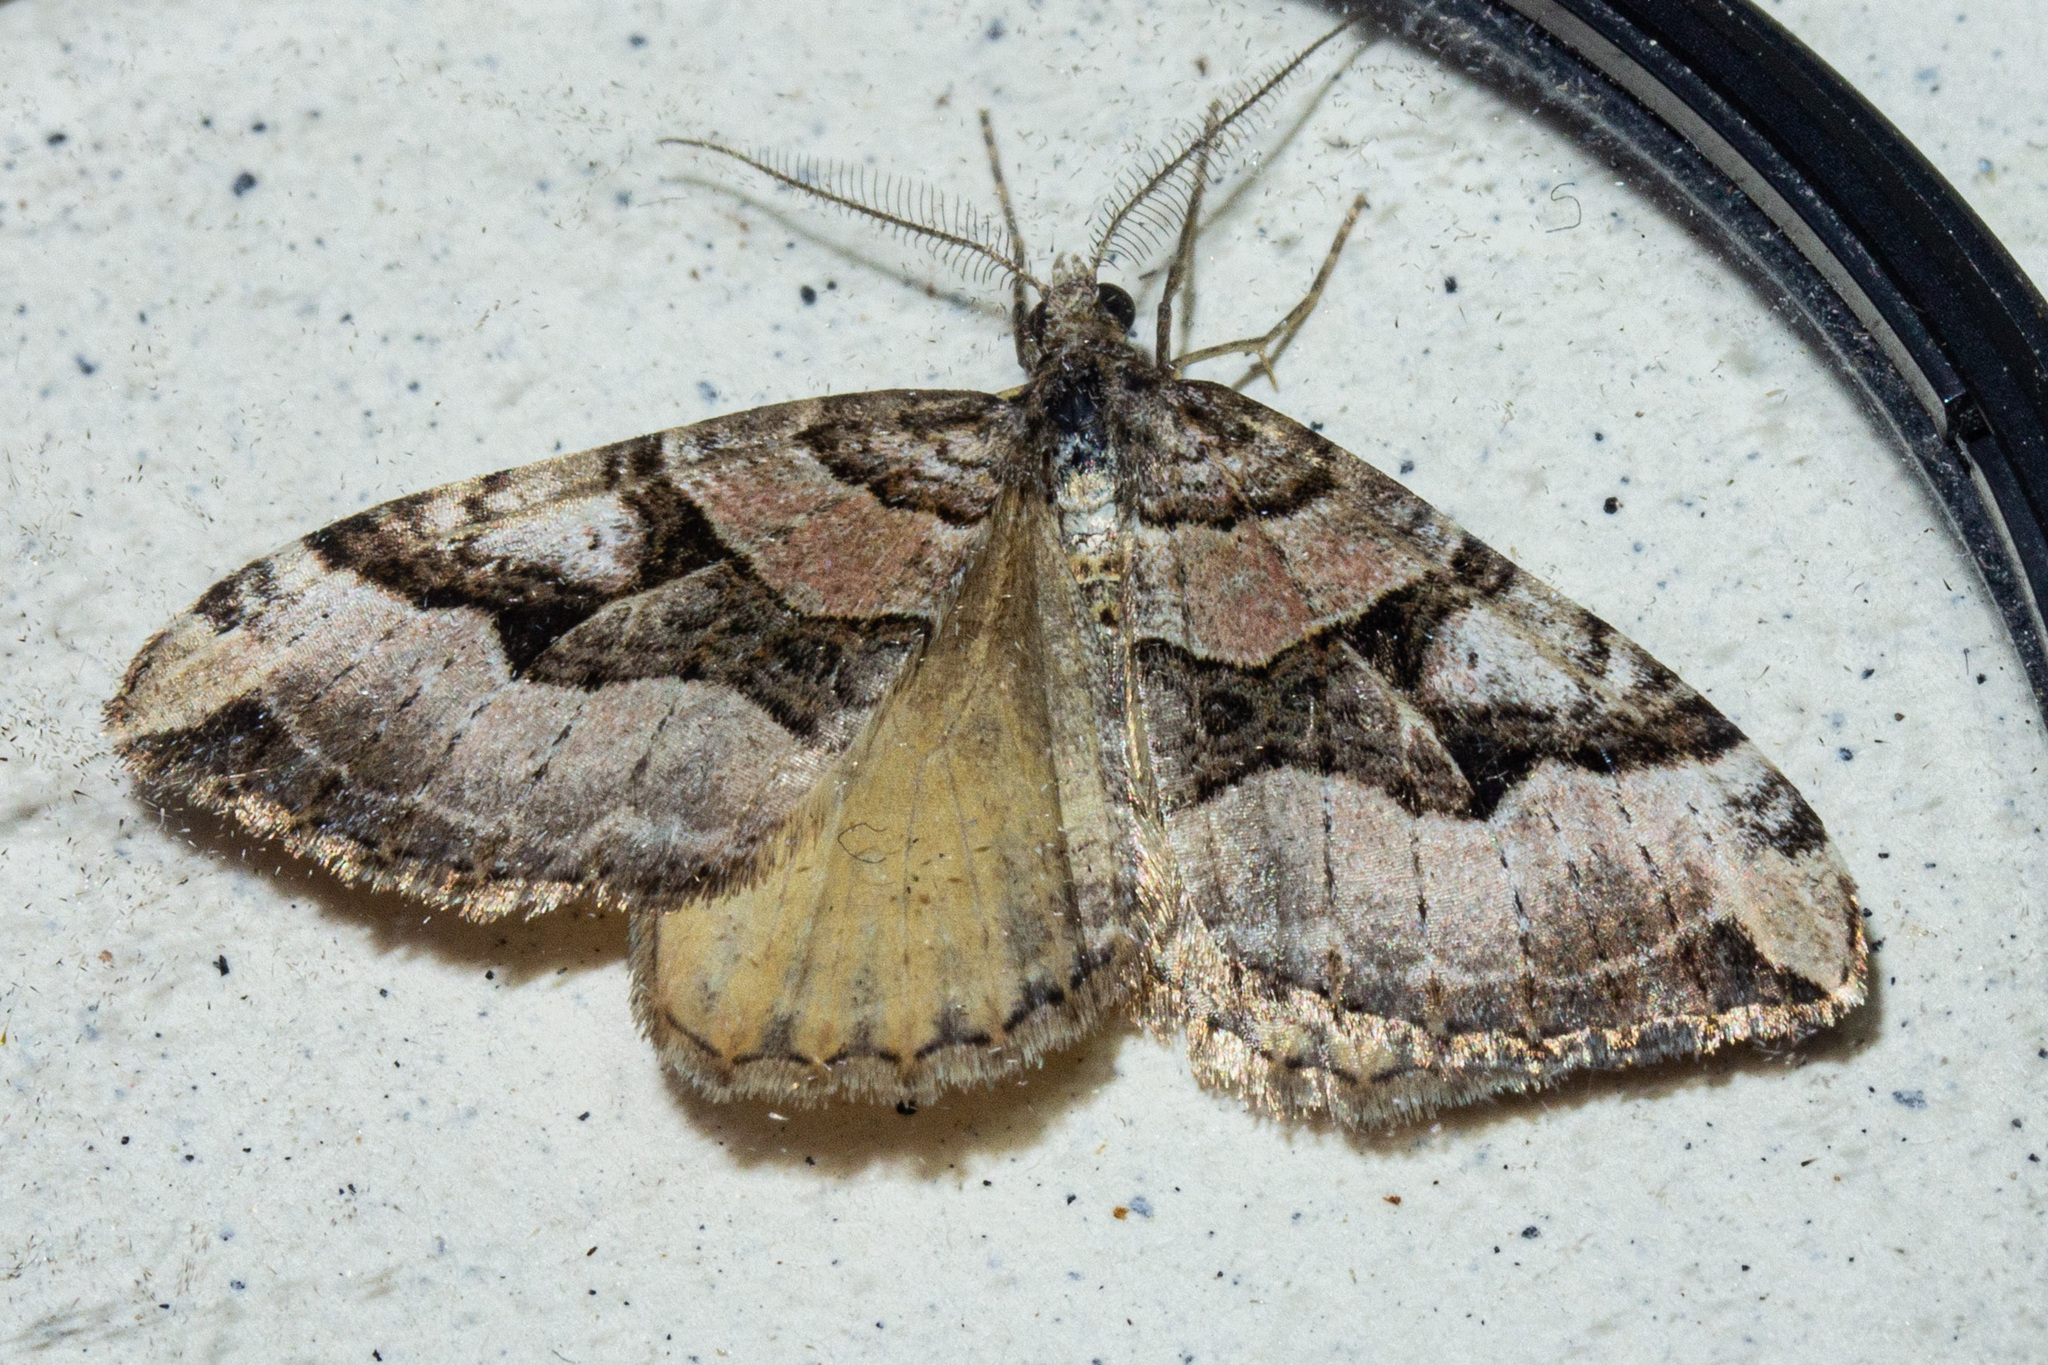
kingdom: Animalia
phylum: Arthropoda
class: Insecta
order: Lepidoptera
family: Geometridae
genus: Xanthorhoe
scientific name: Xanthorhoe semifissata
